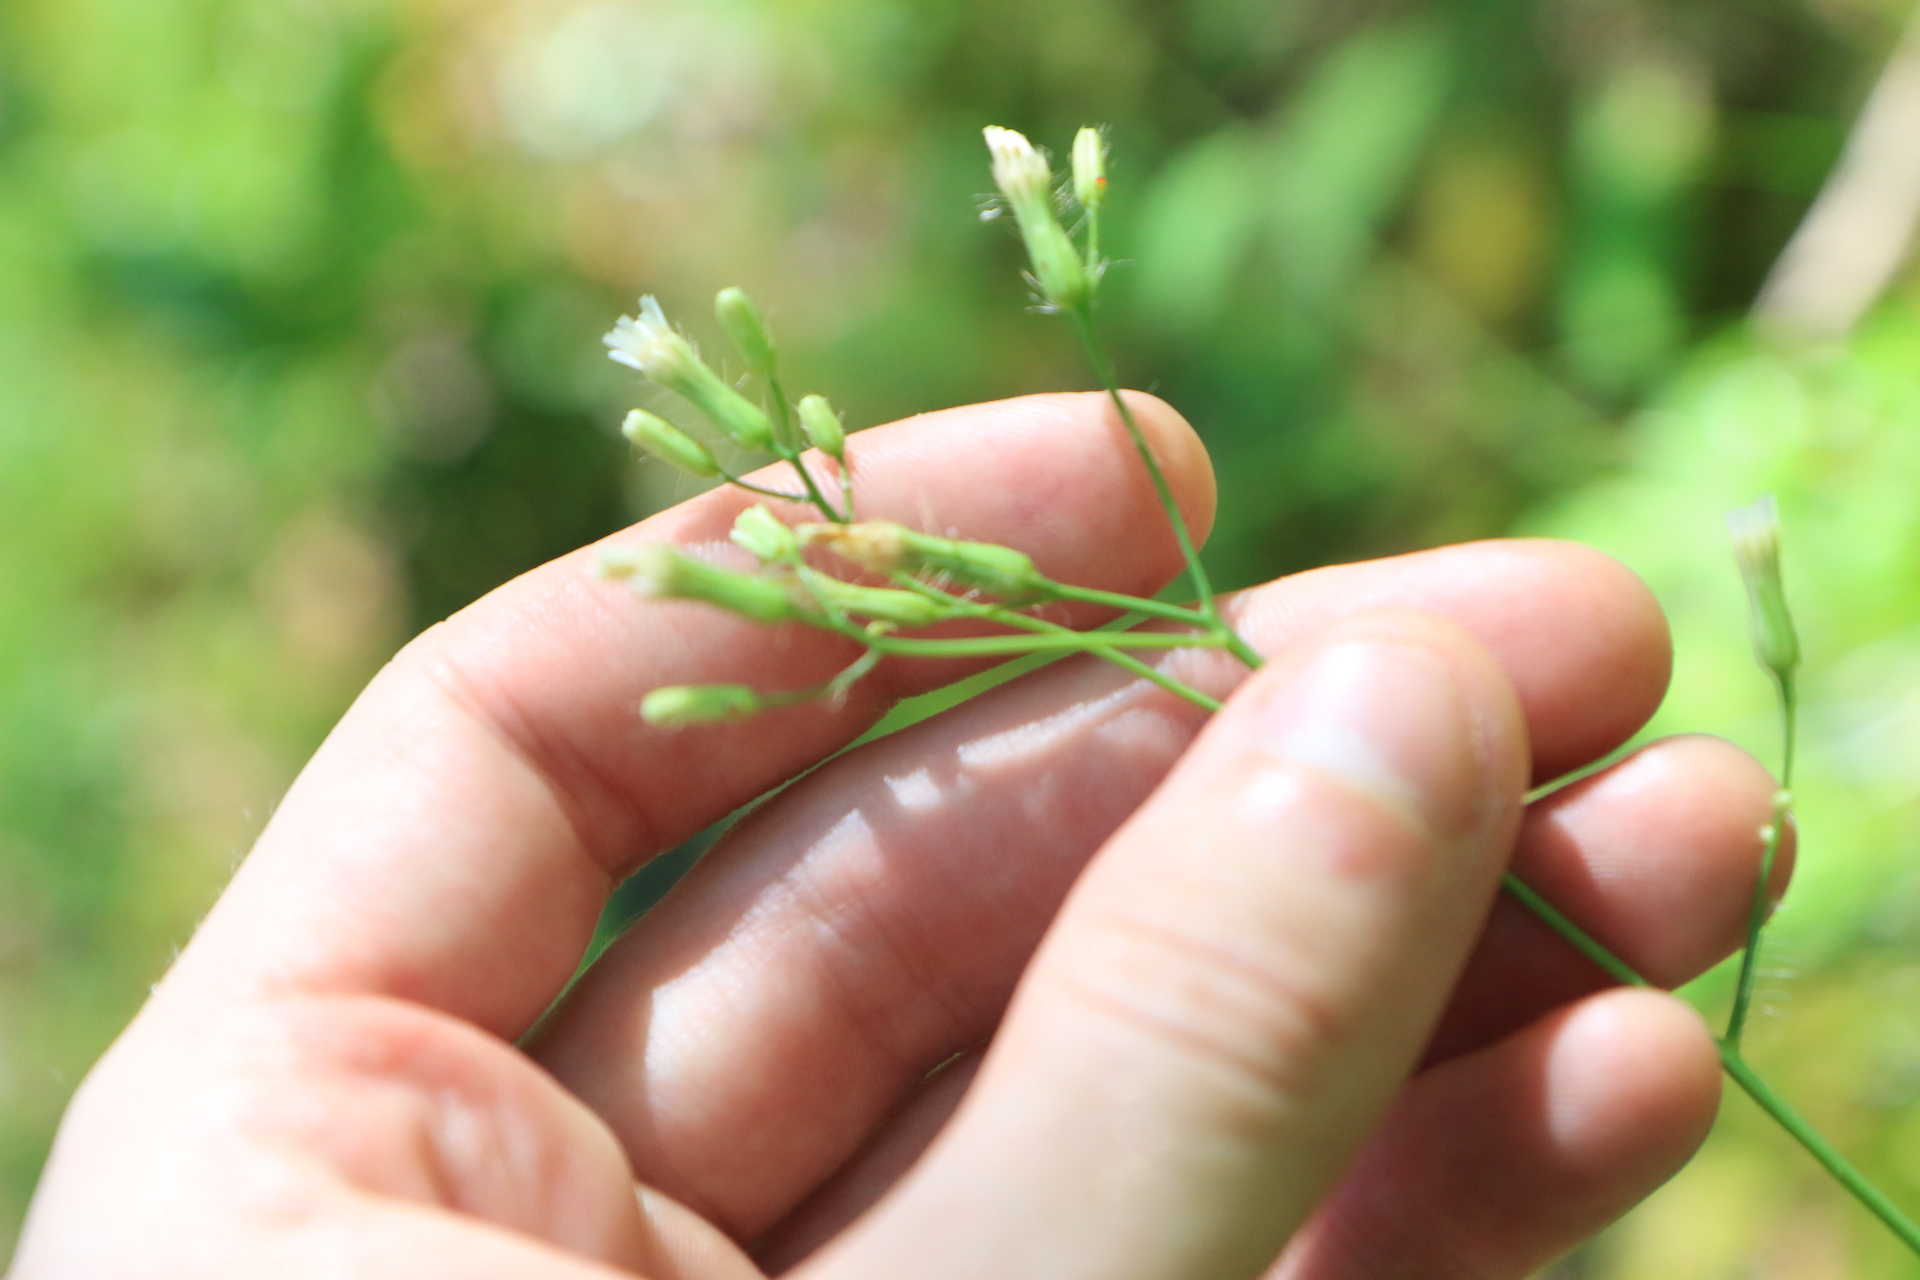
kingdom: Plantae
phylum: Tracheophyta
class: Magnoliopsida
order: Asterales
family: Asteraceae
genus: Hieracium
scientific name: Hieracium albiflorum
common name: White hawkweed
